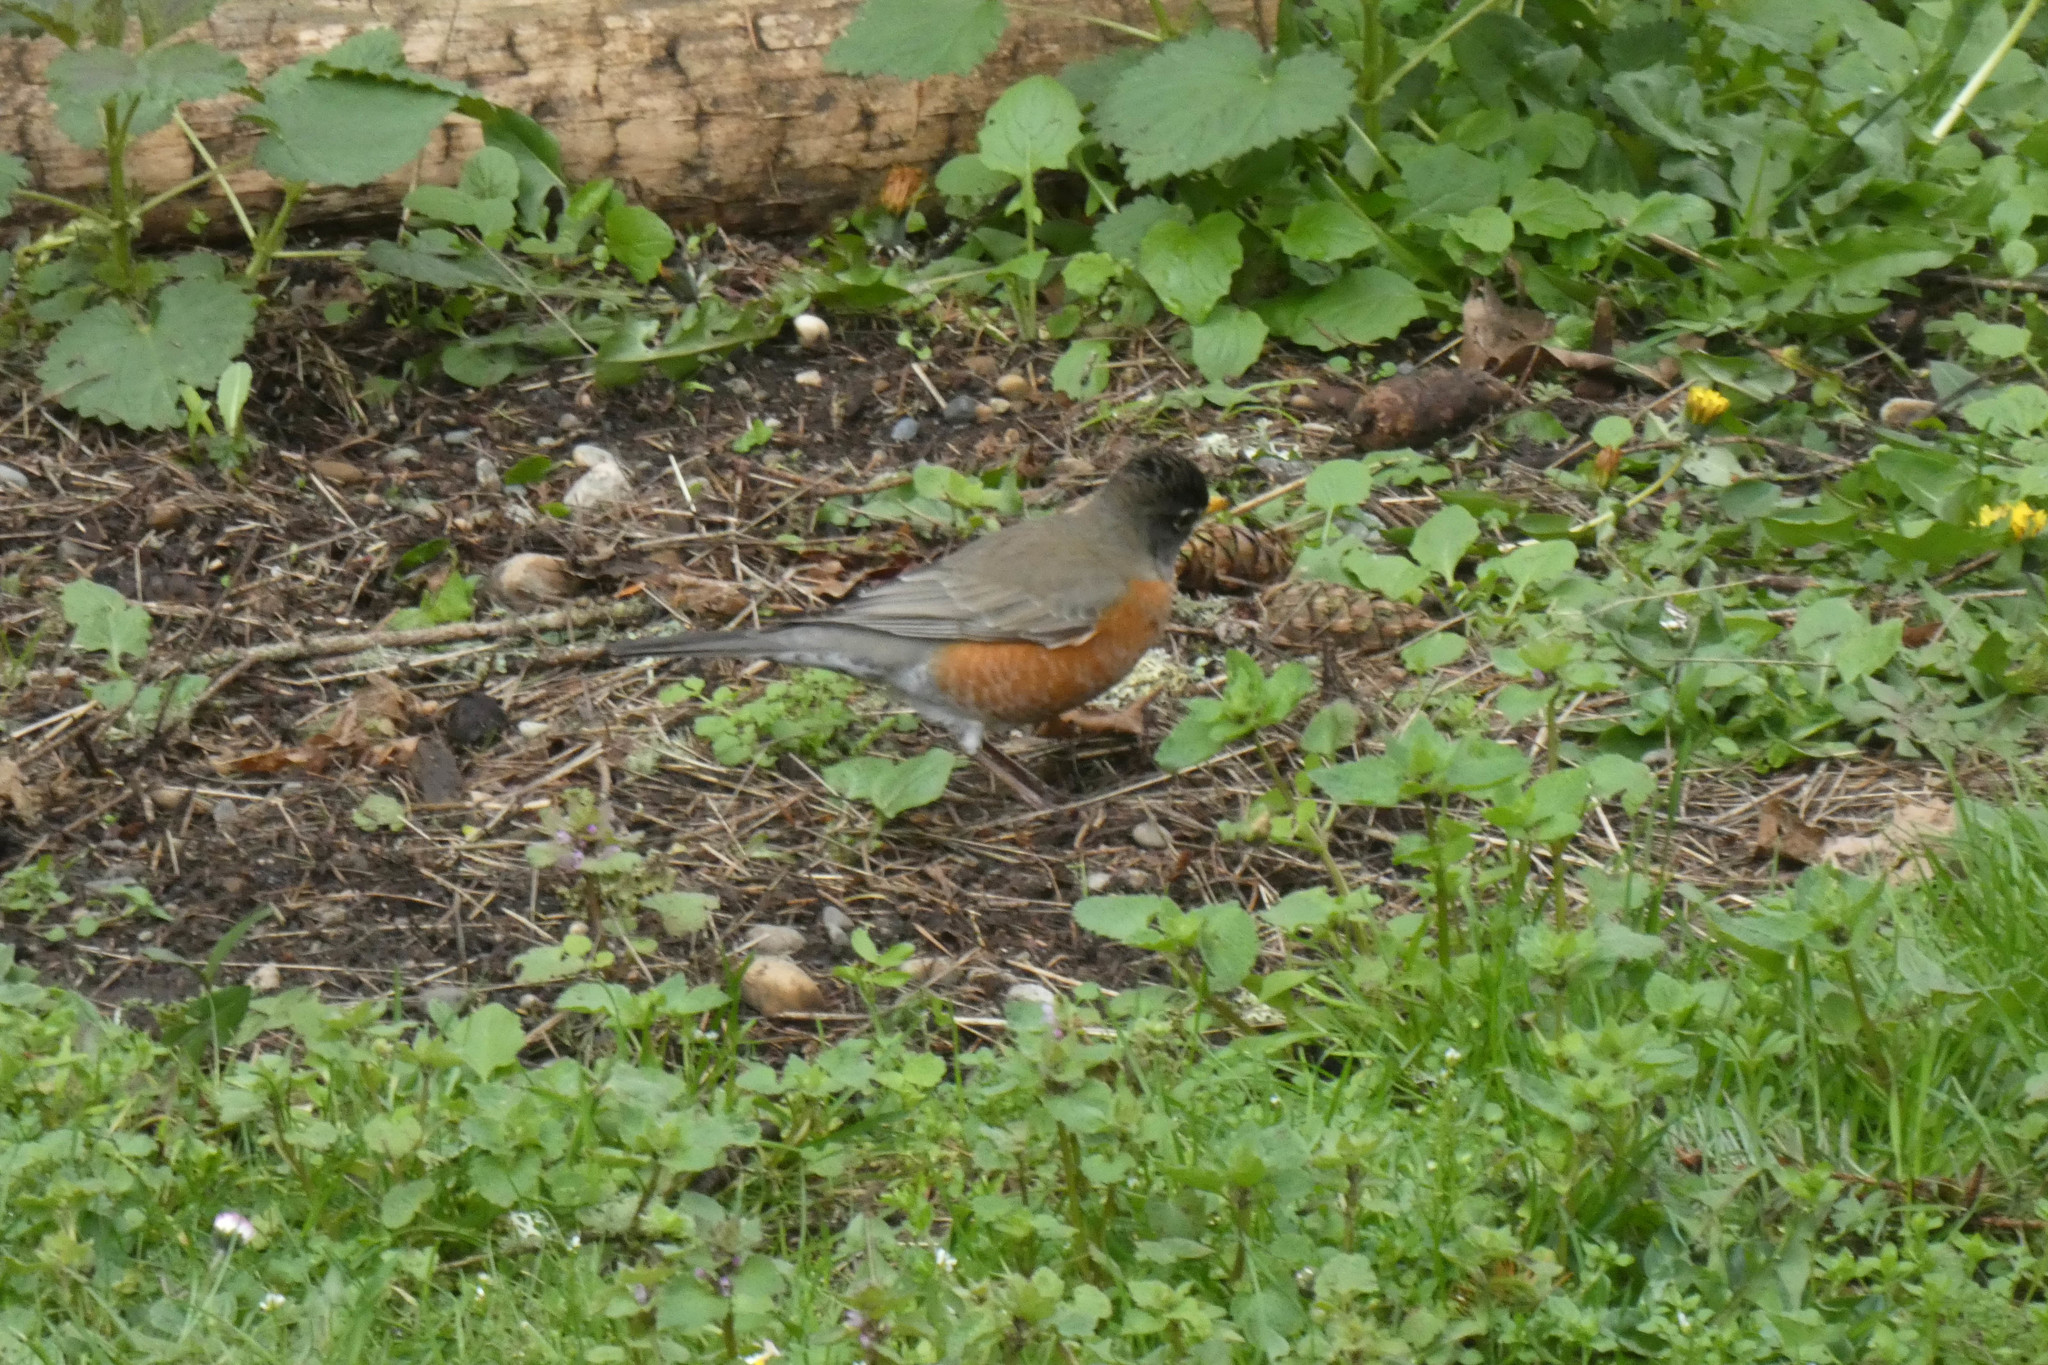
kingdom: Animalia
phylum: Chordata
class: Aves
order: Passeriformes
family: Turdidae
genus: Turdus
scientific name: Turdus migratorius
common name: American robin
